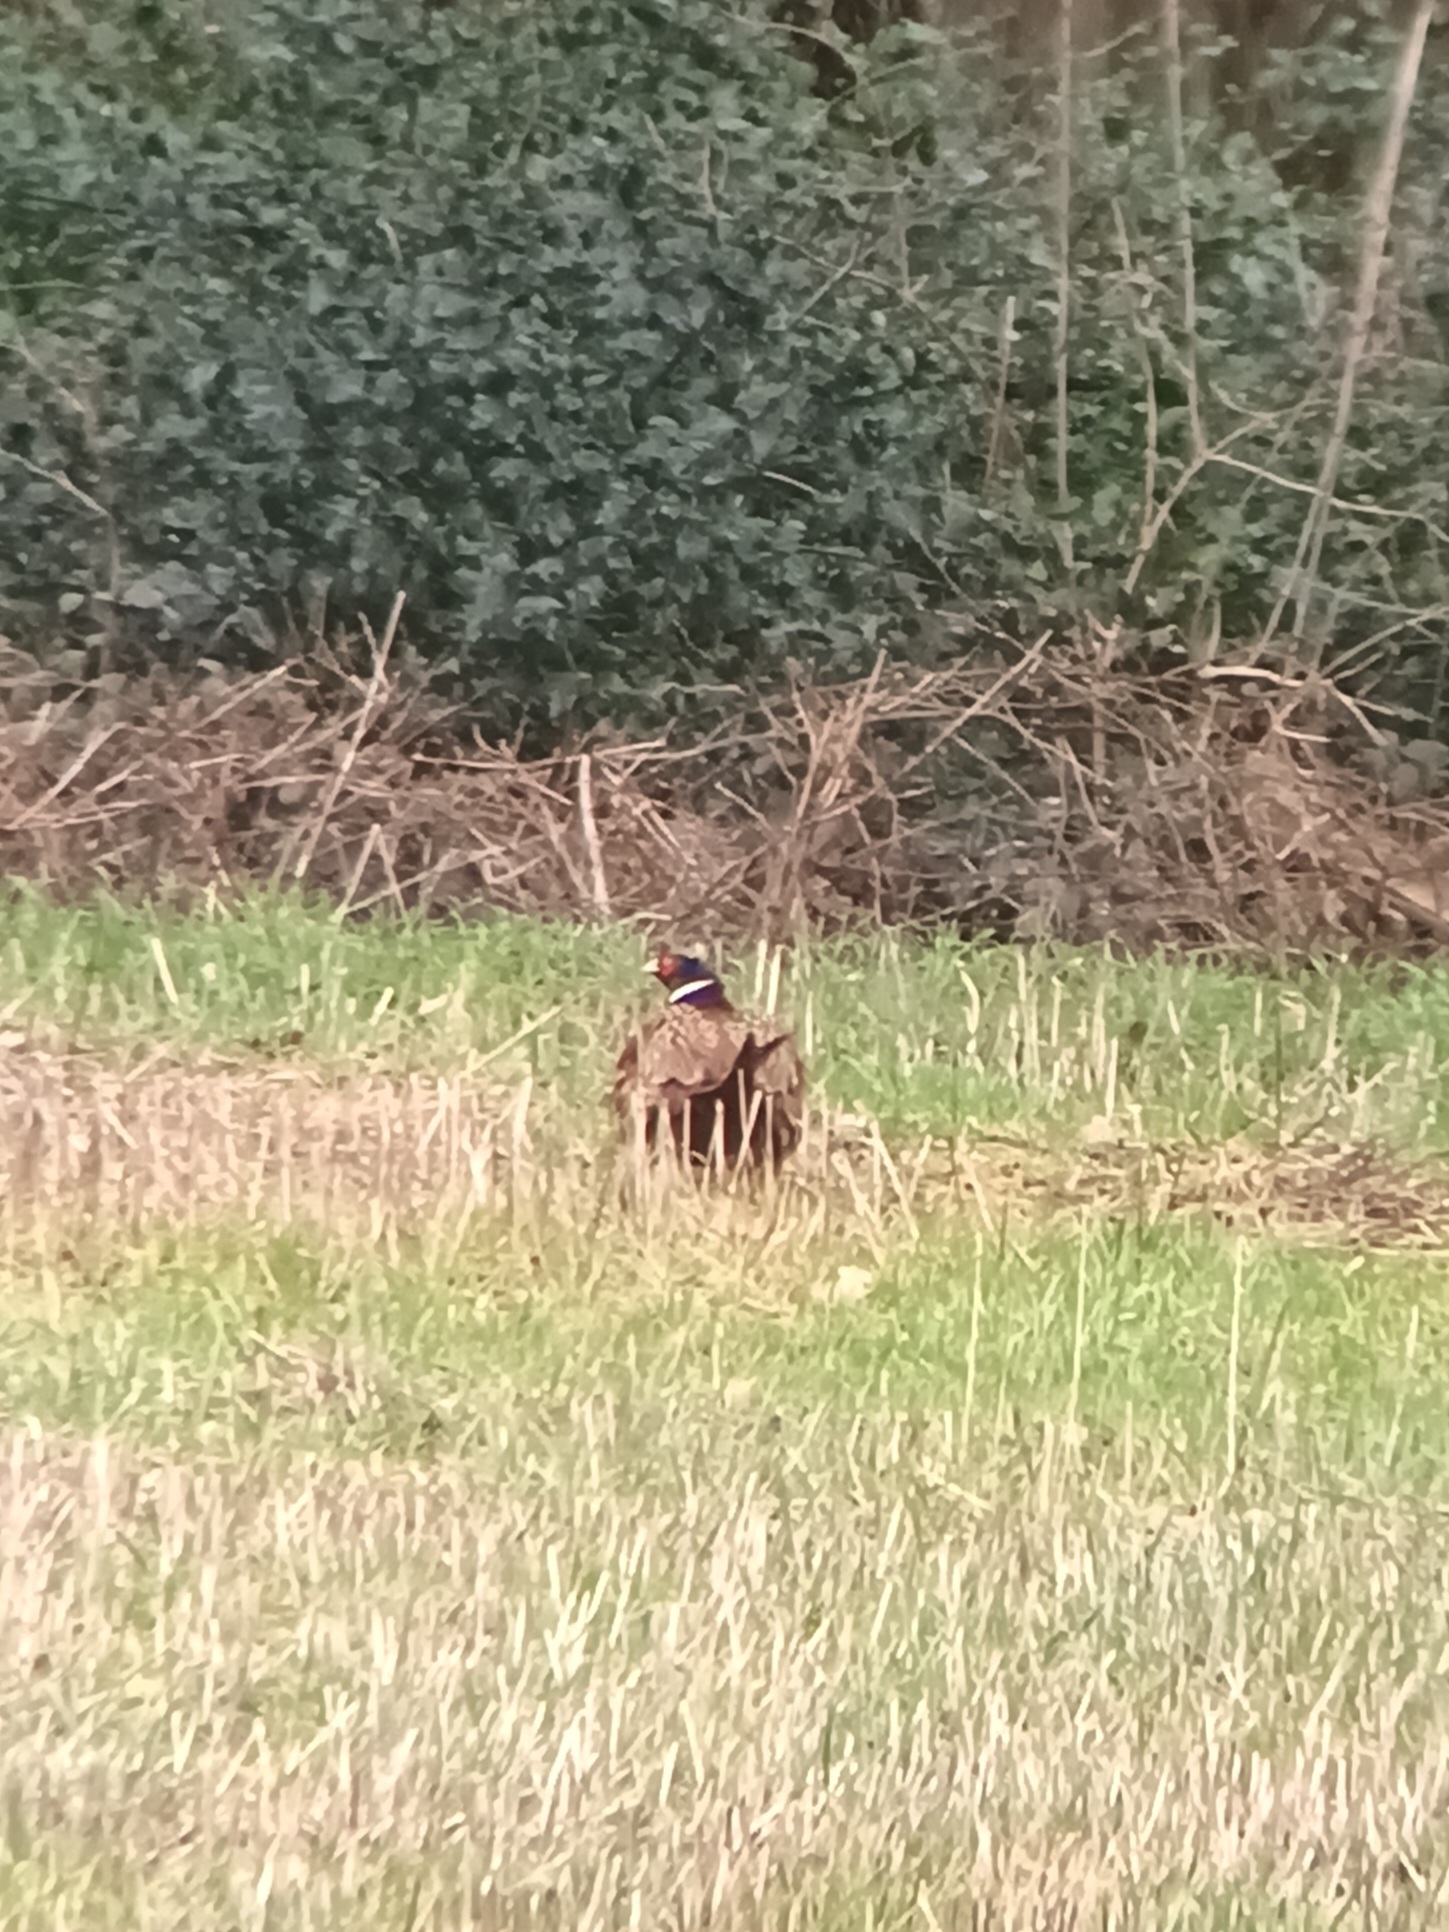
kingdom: Animalia
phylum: Chordata
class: Aves
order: Galliformes
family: Phasianidae
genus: Phasianus
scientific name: Phasianus colchicus
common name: Common pheasant
